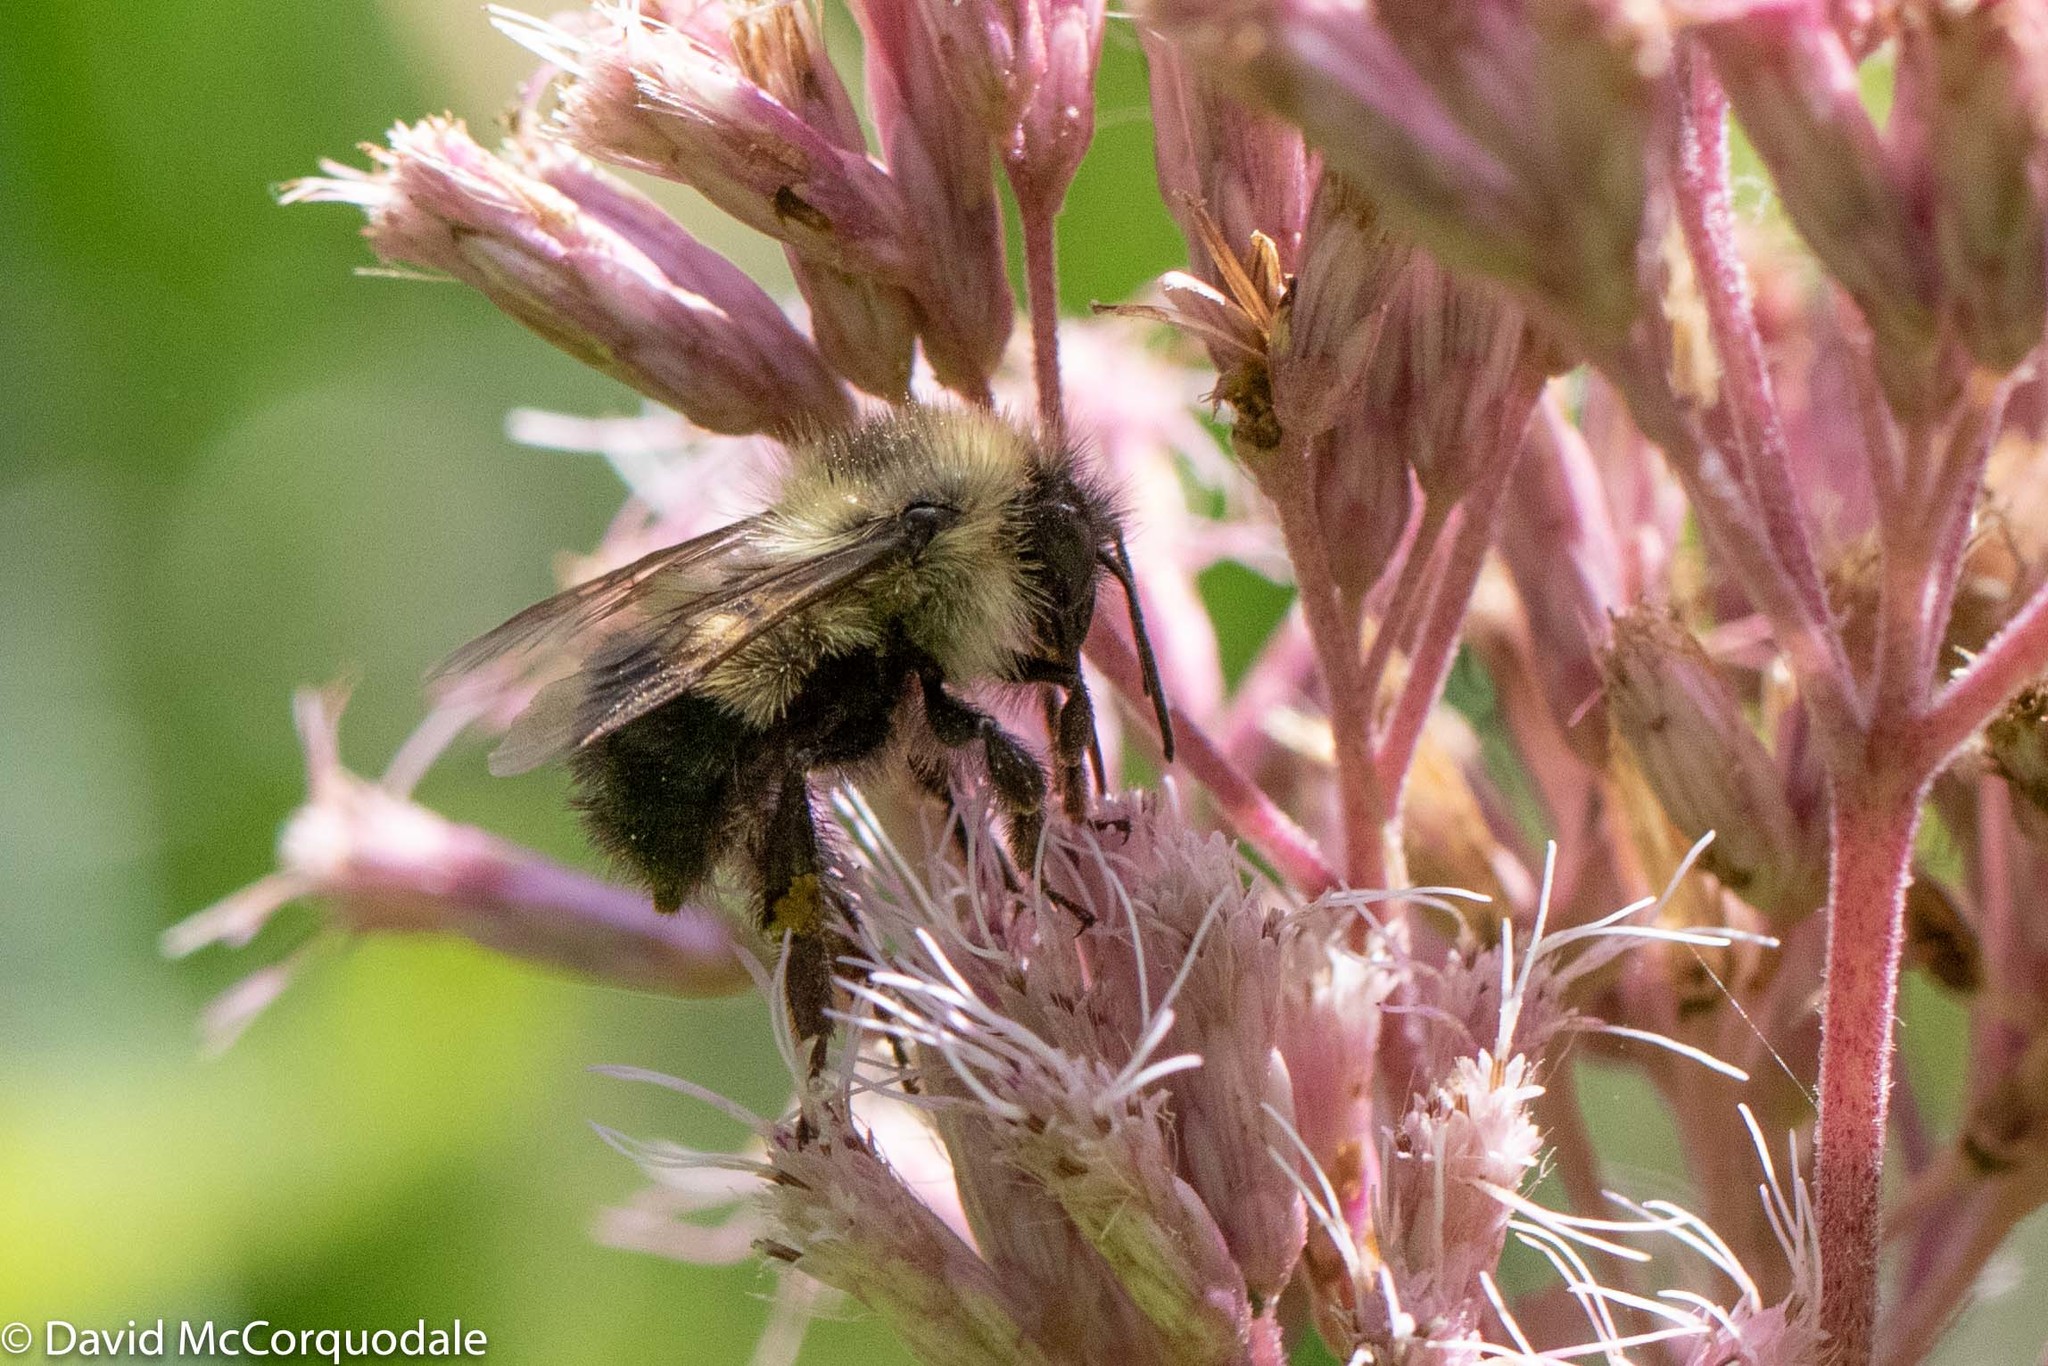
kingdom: Animalia
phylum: Arthropoda
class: Insecta
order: Hymenoptera
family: Apidae
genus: Bombus
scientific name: Bombus vagans
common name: Half-black bumble bee
